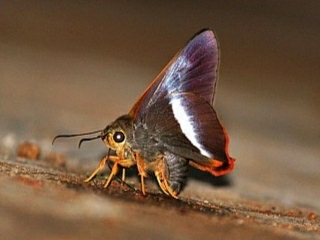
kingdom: Animalia
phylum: Arthropoda
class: Insecta
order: Lepidoptera
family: Hesperiidae
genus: Bibasis
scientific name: Bibasis sena
